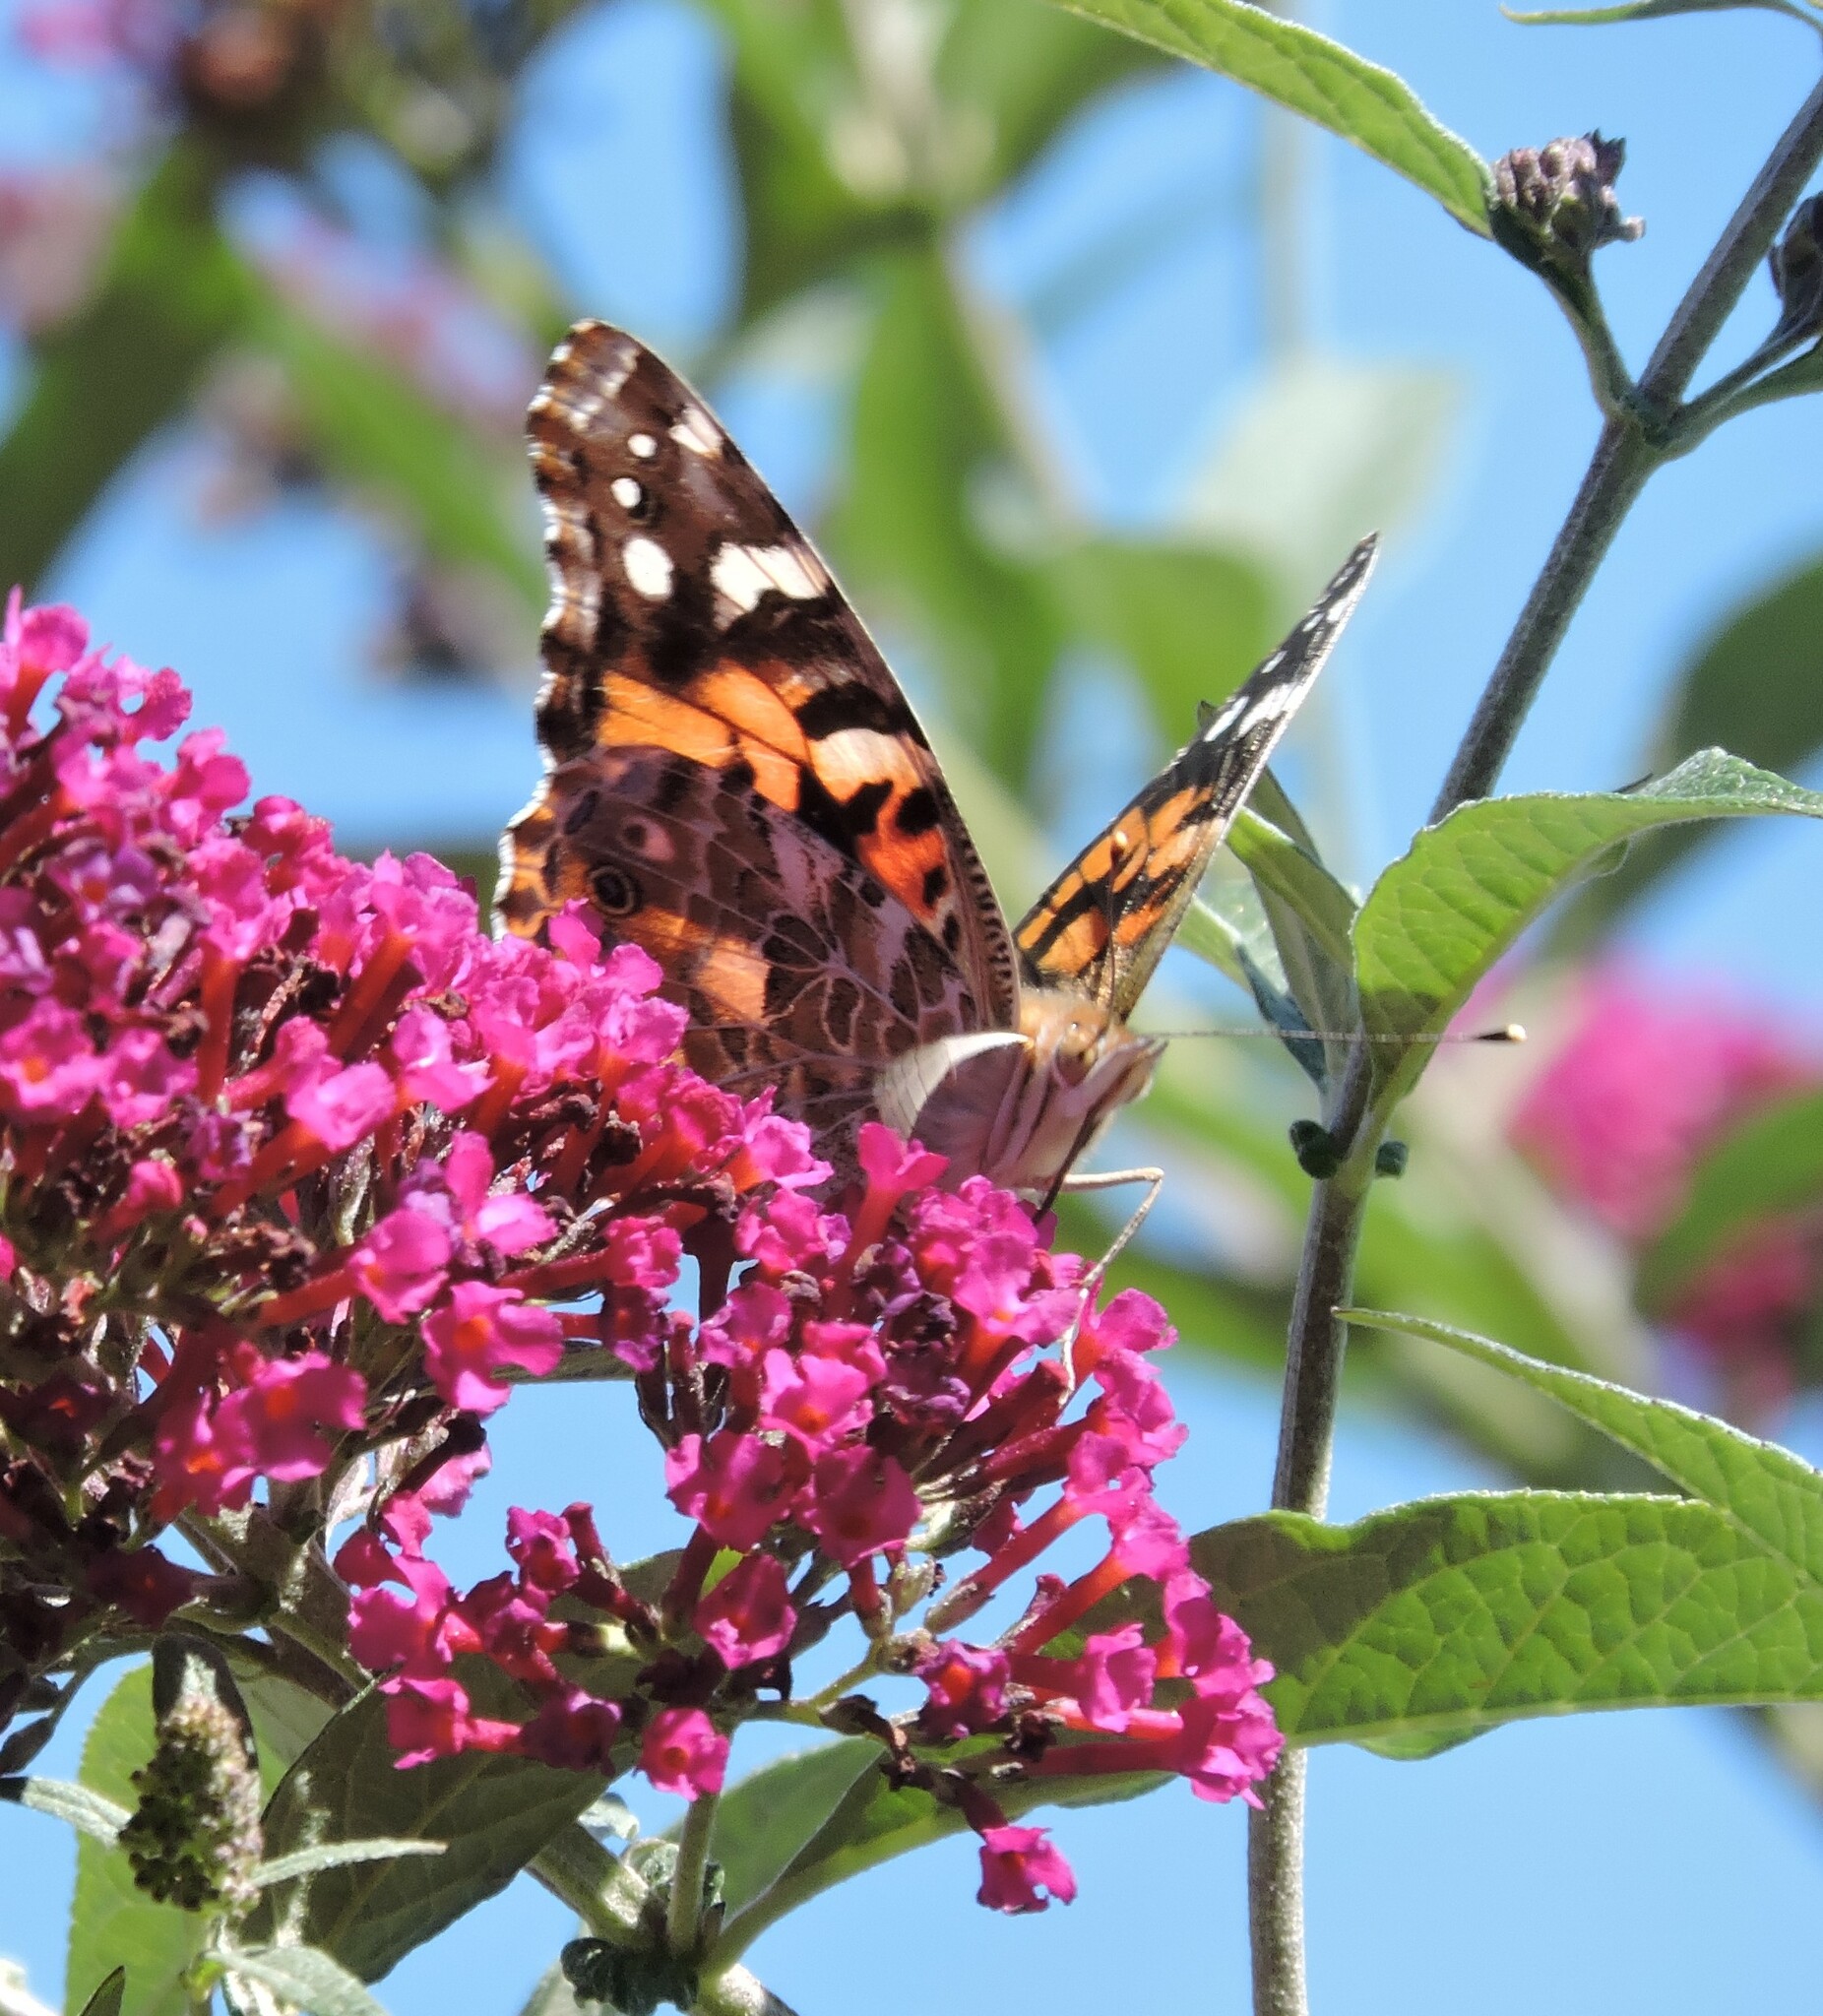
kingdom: Animalia
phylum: Arthropoda
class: Insecta
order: Lepidoptera
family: Nymphalidae
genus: Vanessa
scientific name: Vanessa cardui
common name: Painted lady
